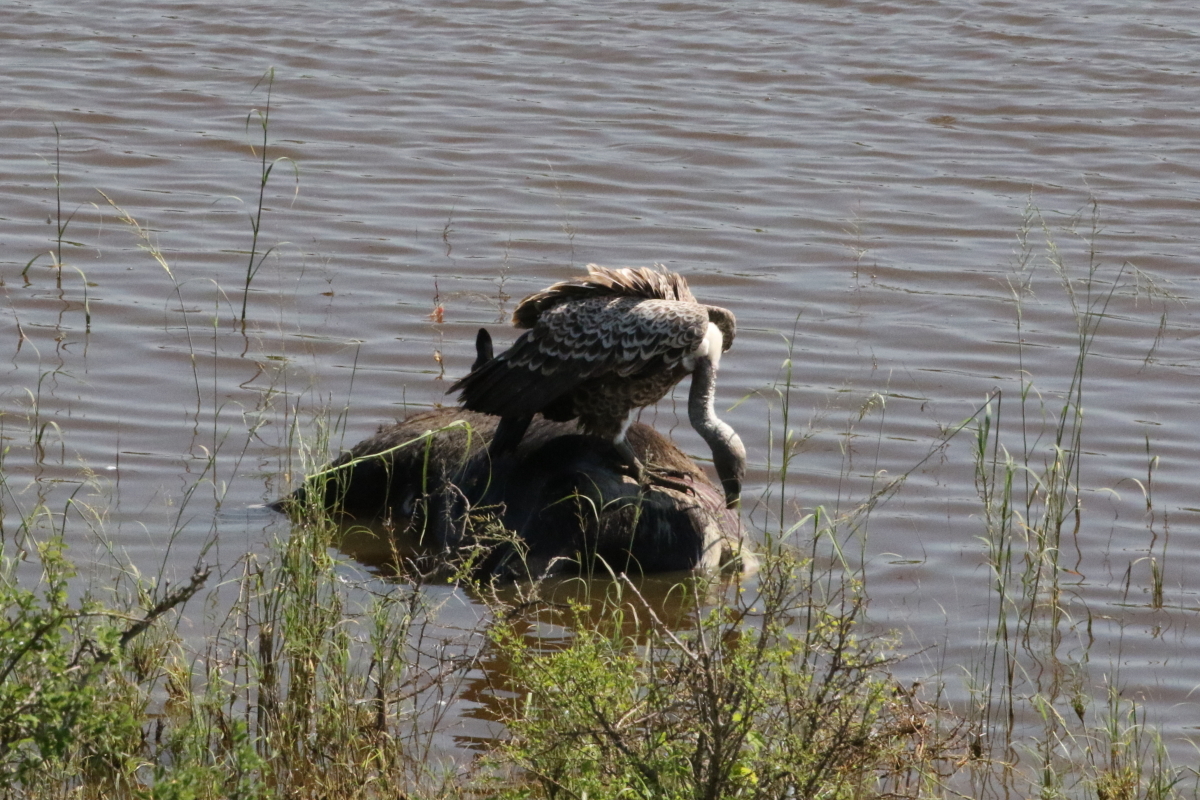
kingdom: Animalia
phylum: Chordata
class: Aves
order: Accipitriformes
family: Accipitridae
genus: Gyps
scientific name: Gyps rueppellii
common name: Rüppell's vulture
